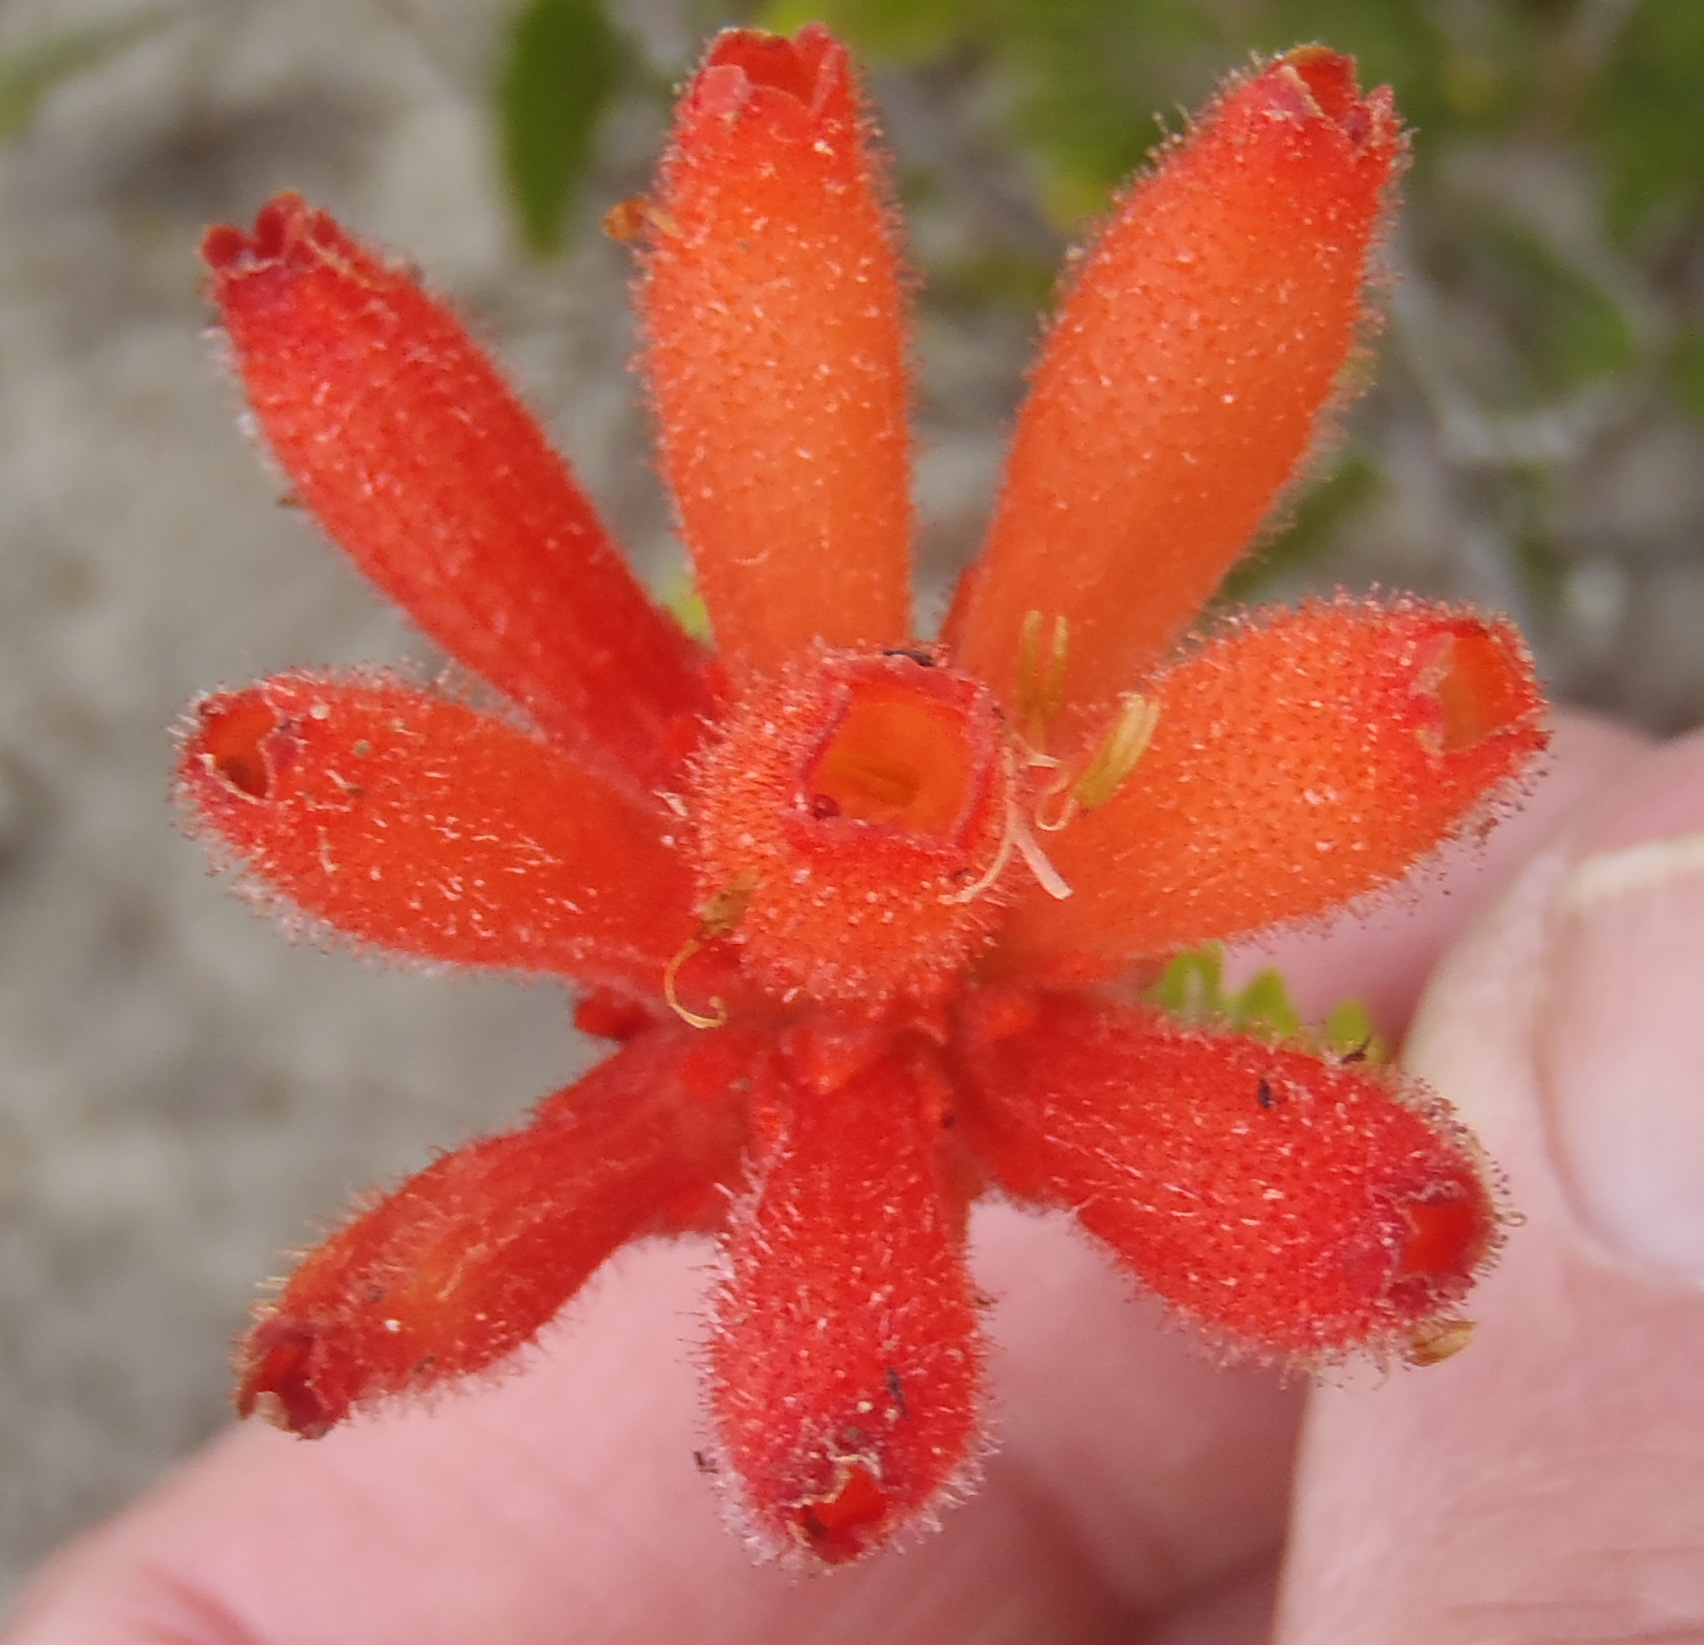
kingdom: Plantae
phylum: Tracheophyta
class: Magnoliopsida
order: Ericales
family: Ericaceae
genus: Erica
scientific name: Erica cerinthoides
